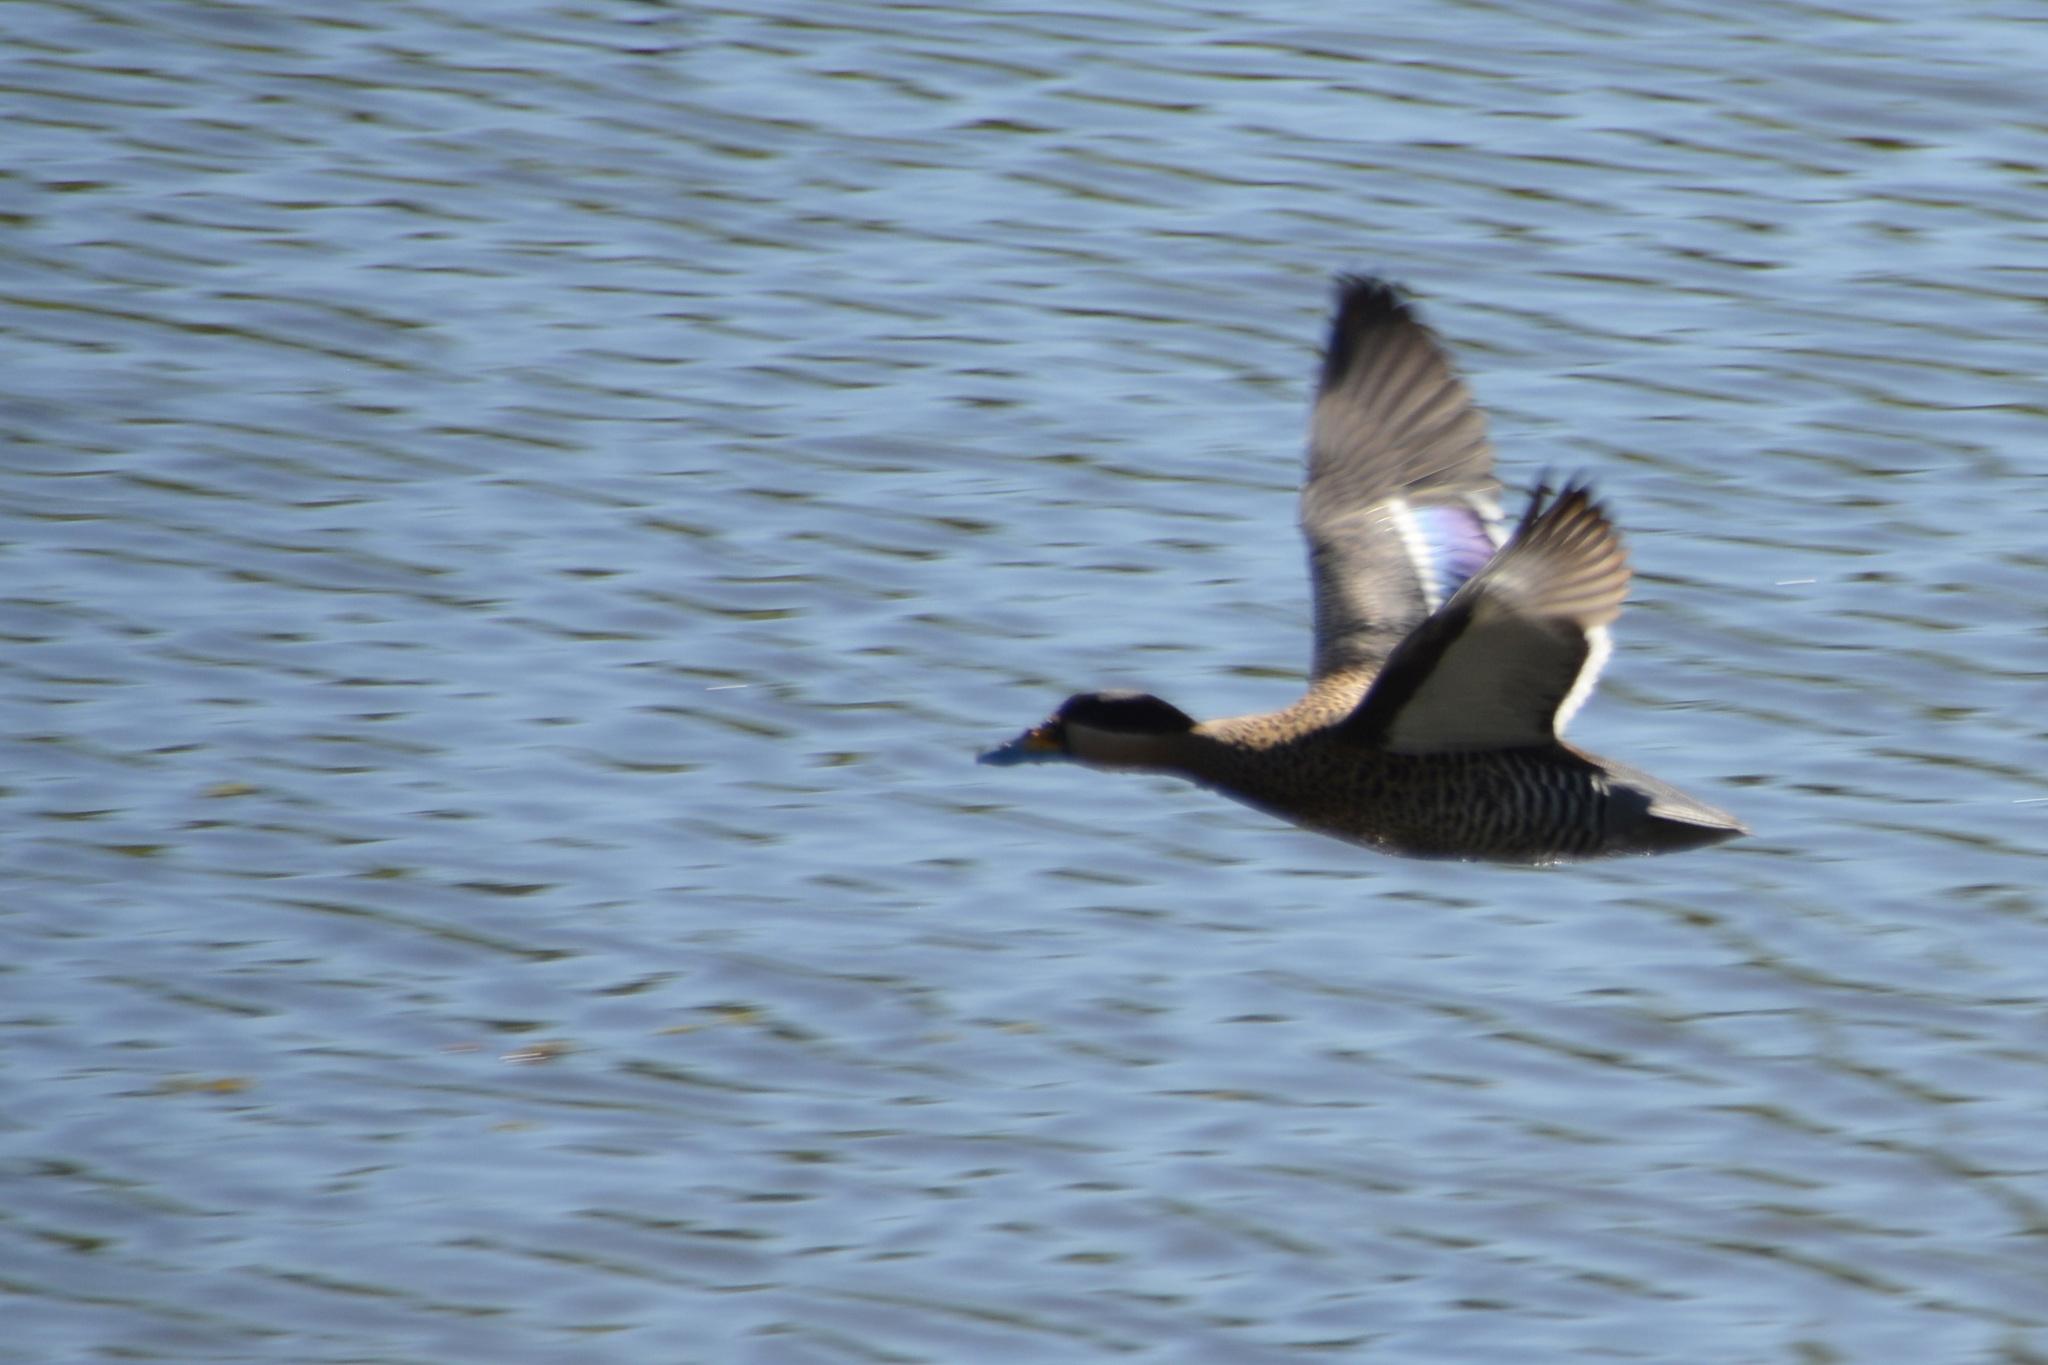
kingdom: Animalia
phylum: Chordata
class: Aves
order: Anseriformes
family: Anatidae
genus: Spatula
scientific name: Spatula versicolor
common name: Silver teal
